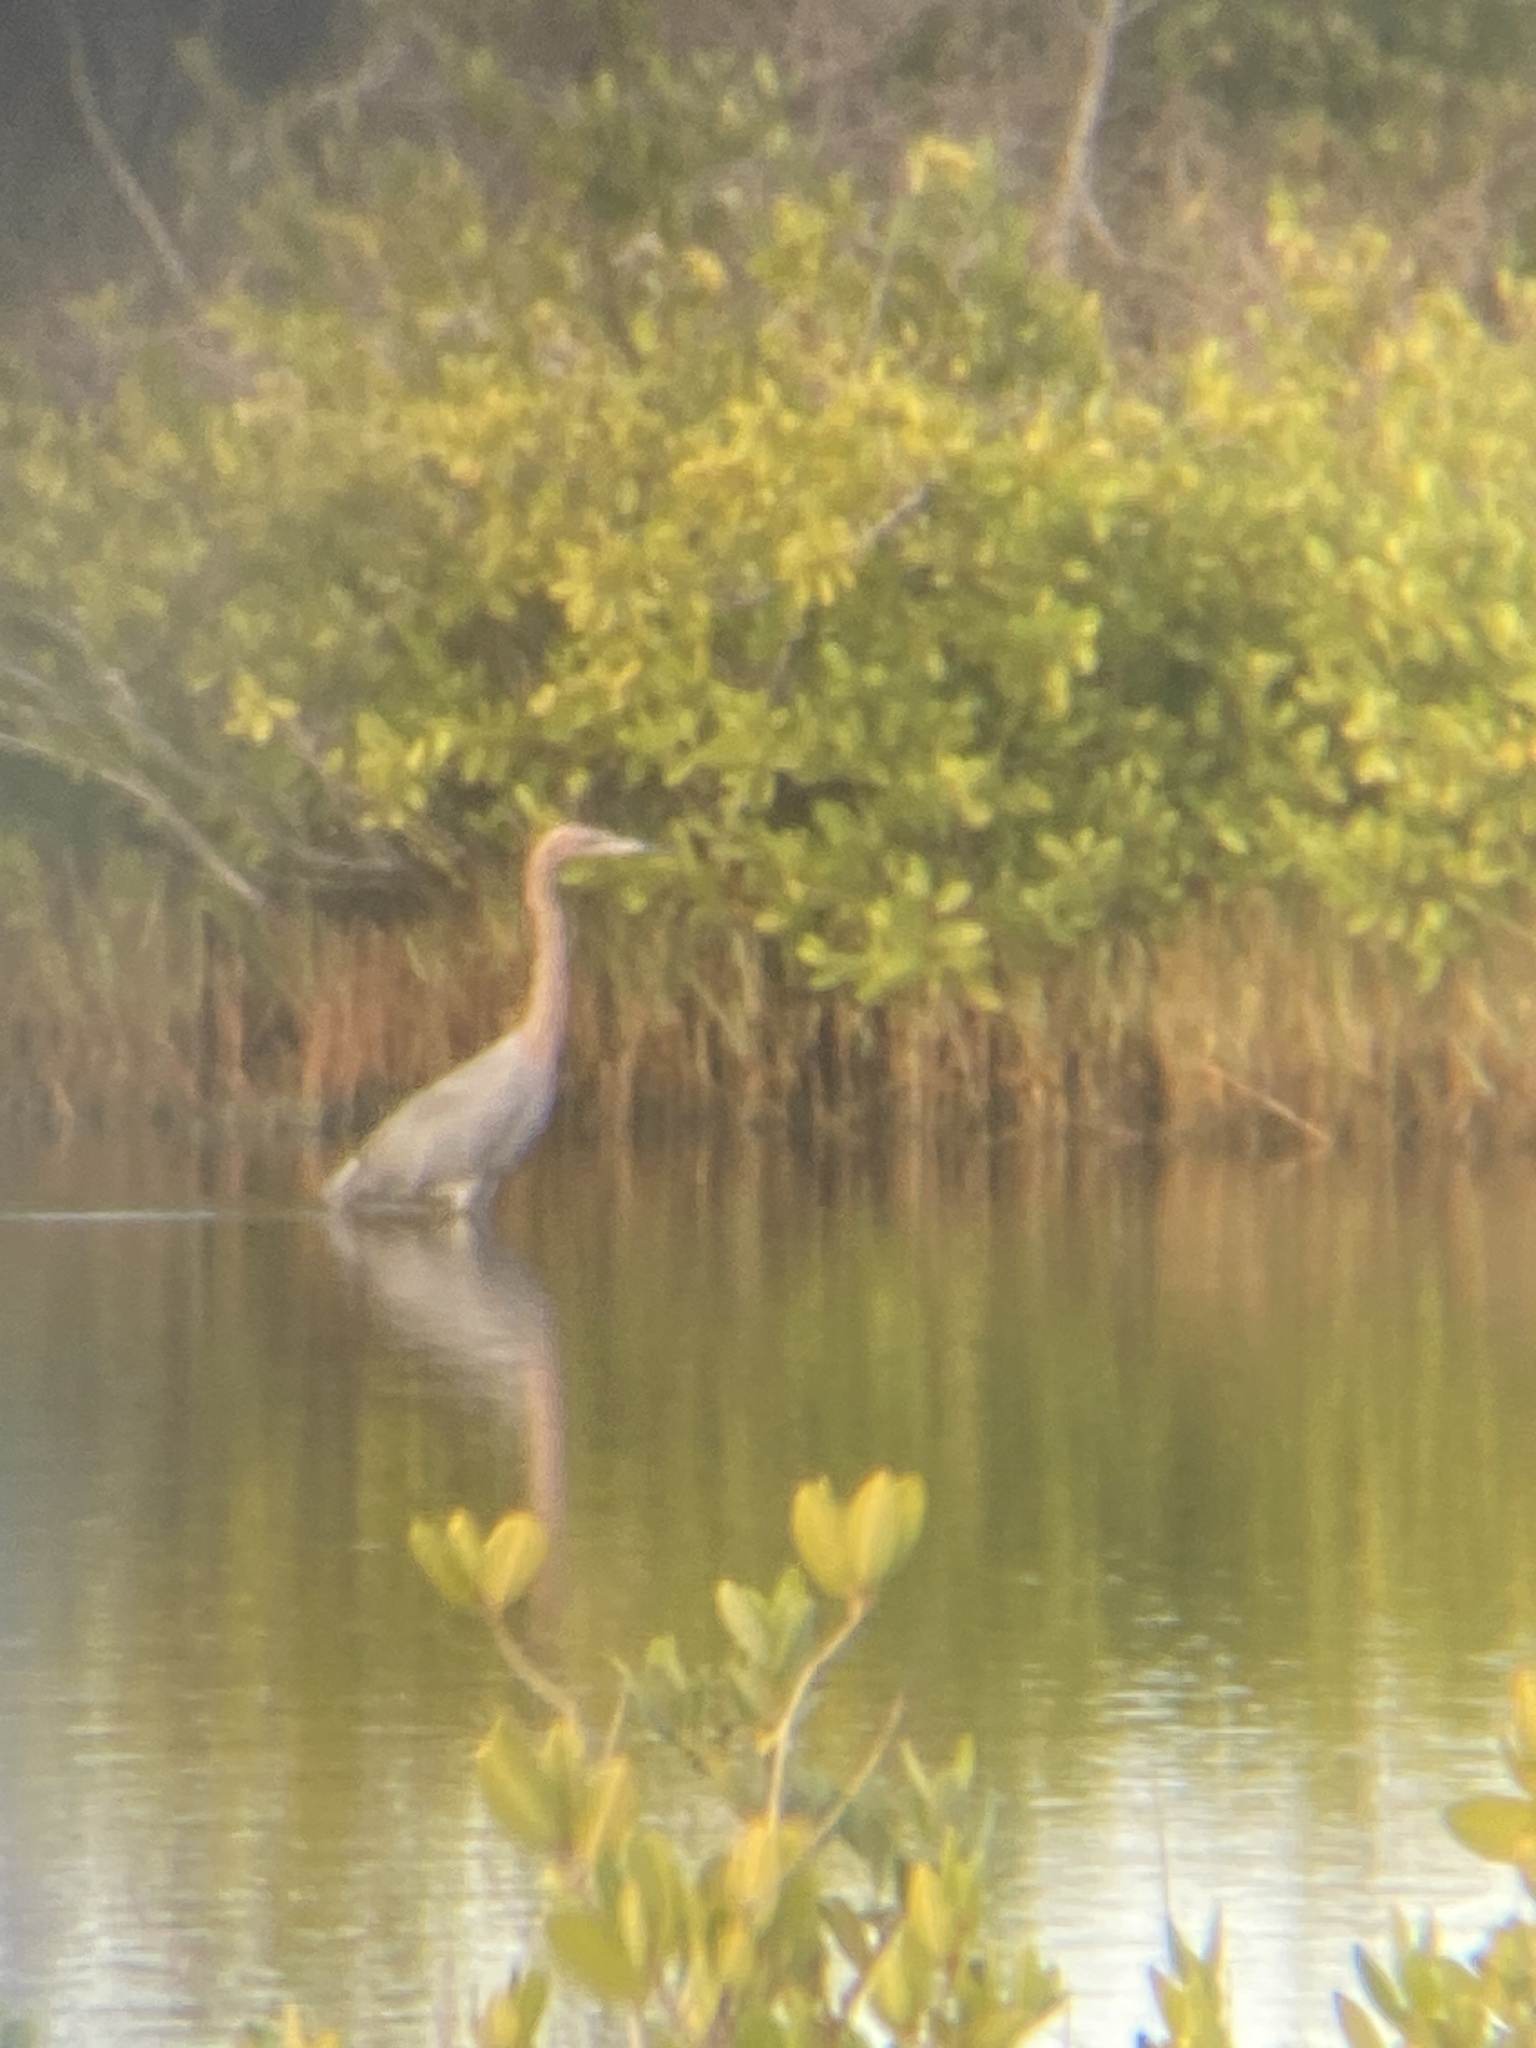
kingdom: Animalia
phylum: Chordata
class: Aves
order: Pelecaniformes
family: Ardeidae
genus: Egretta
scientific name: Egretta rufescens
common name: Reddish egret
